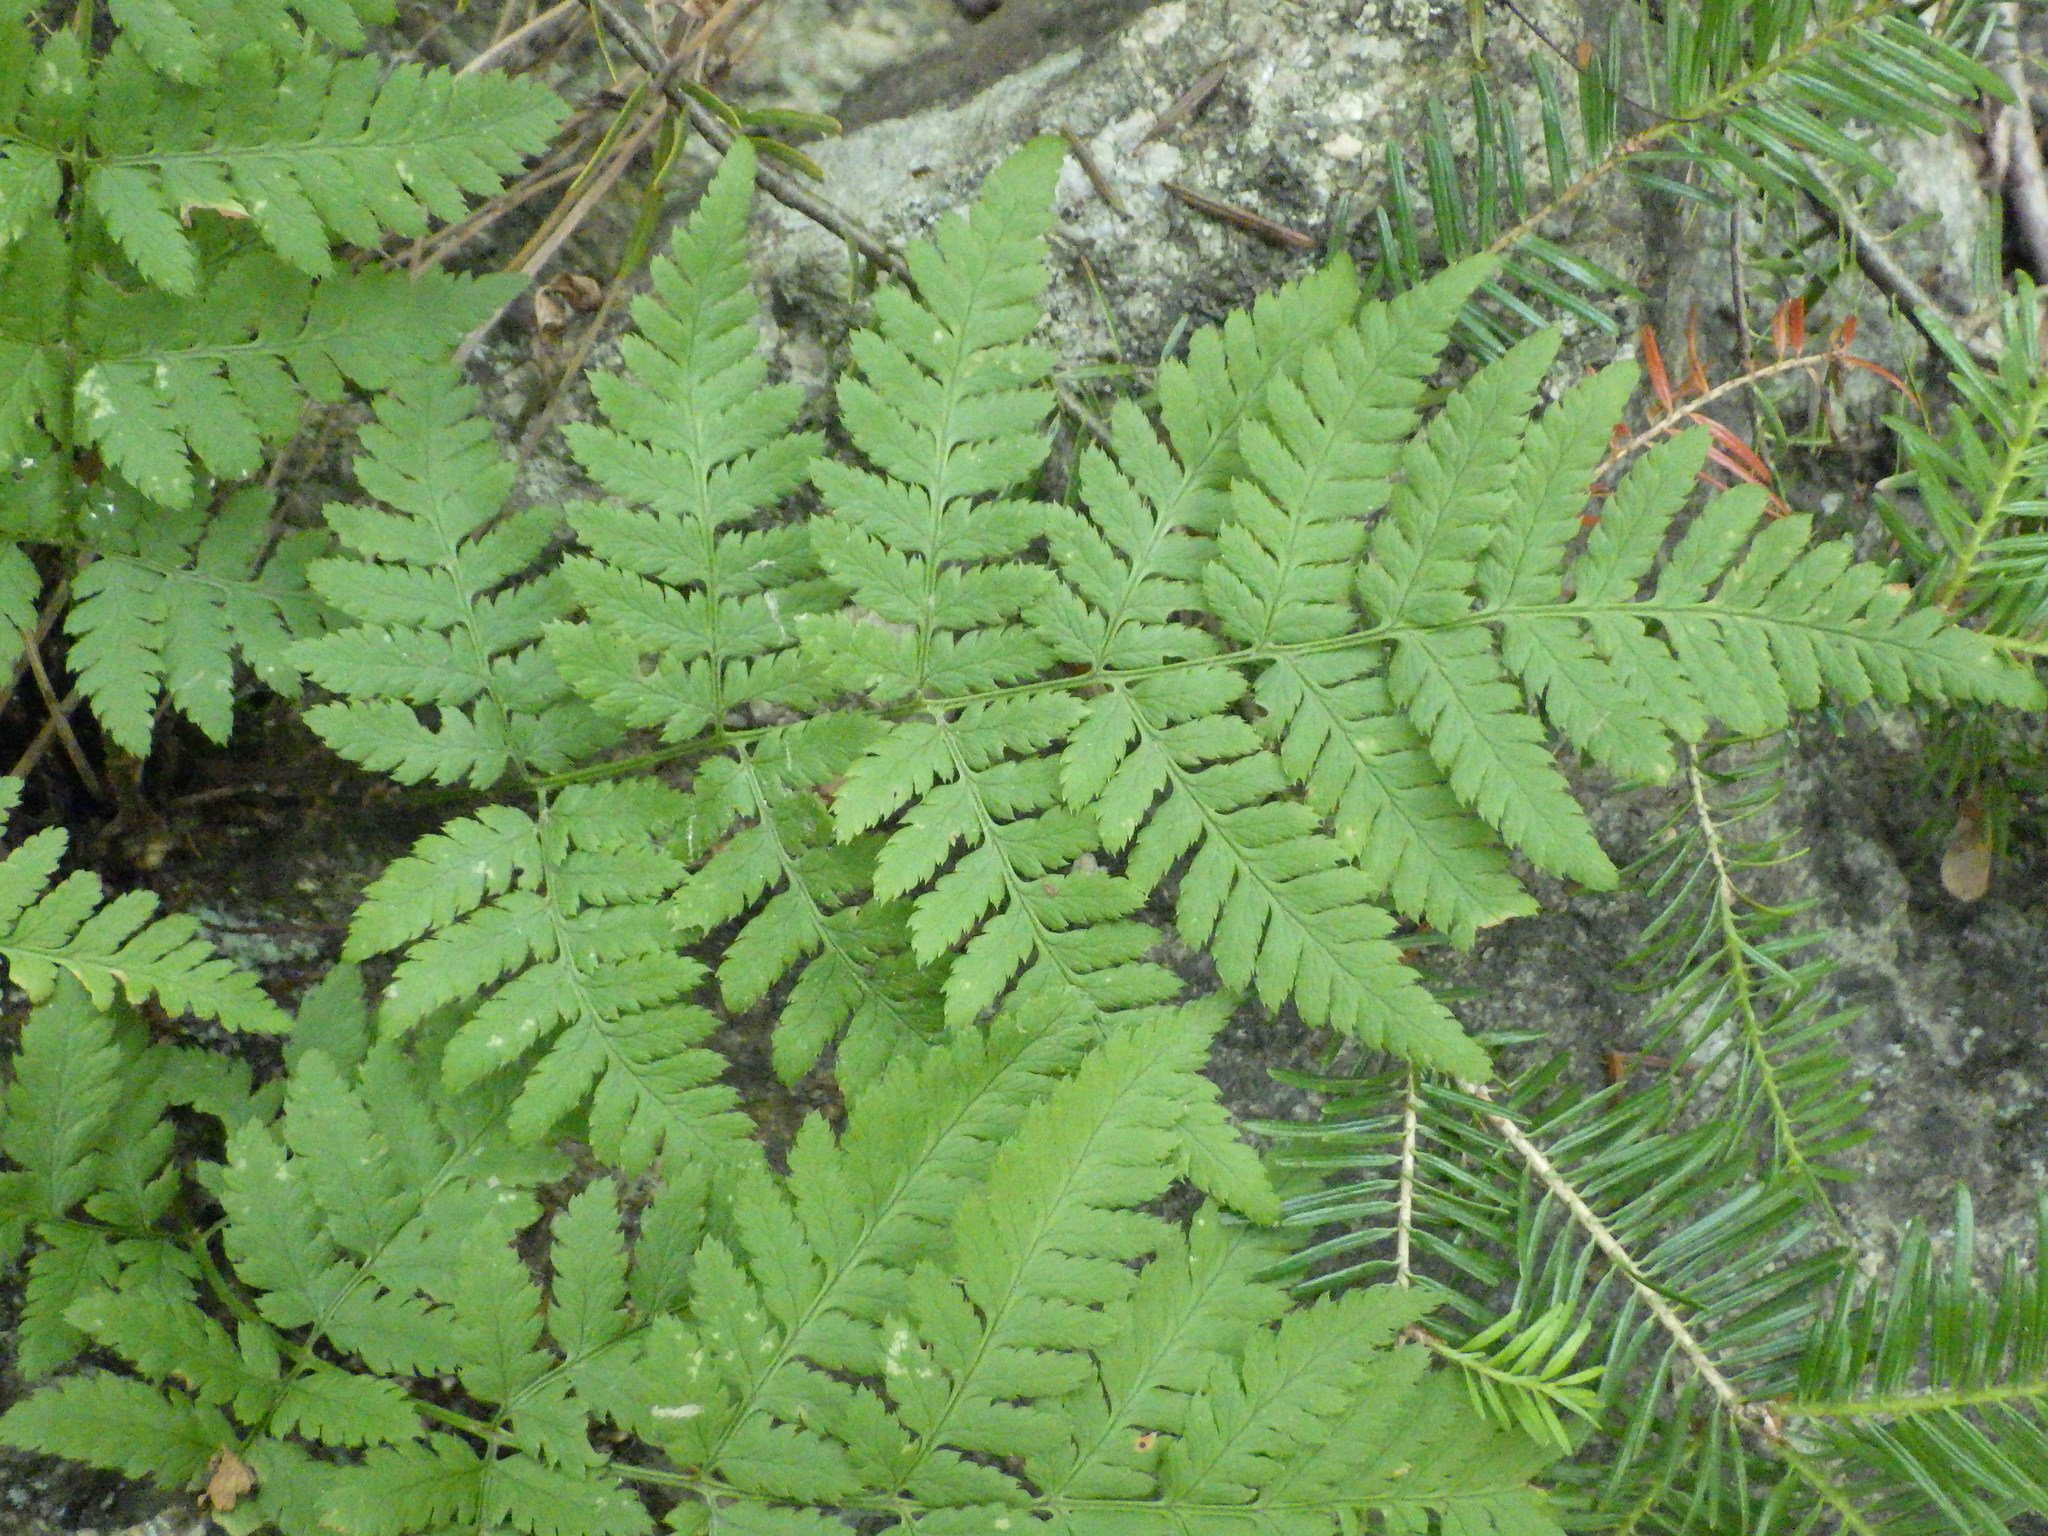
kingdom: Plantae
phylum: Tracheophyta
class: Polypodiopsida
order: Polypodiales
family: Dryopteridaceae
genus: Dryopteris
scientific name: Dryopteris intermedia
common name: Evergreen wood fern
